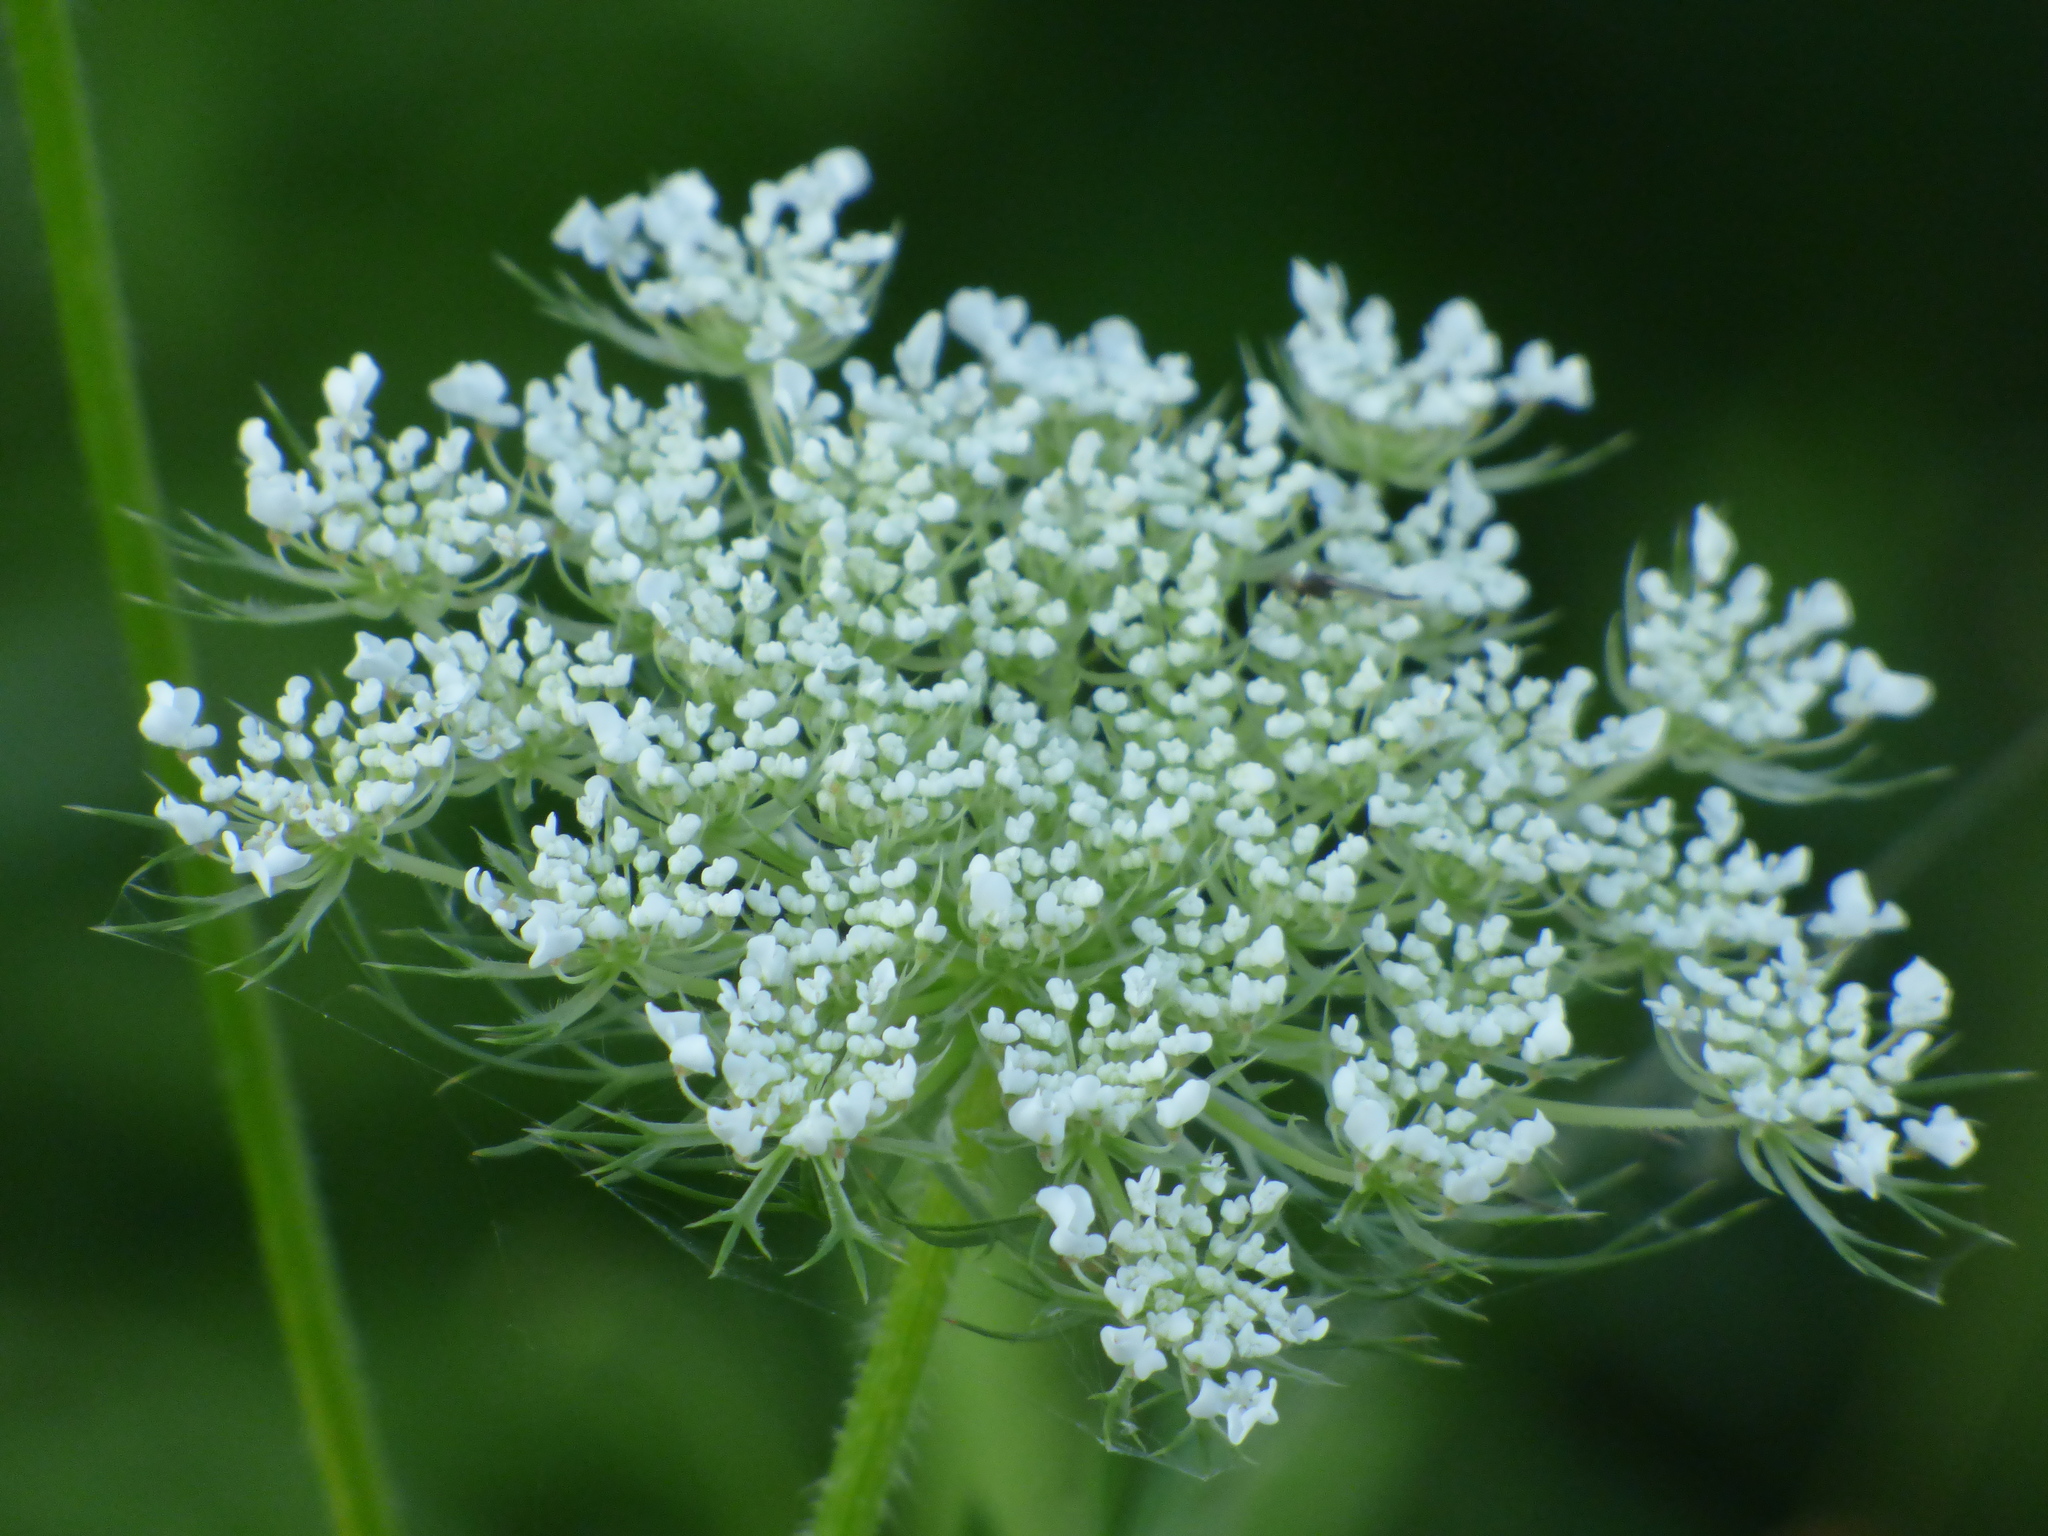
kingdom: Plantae
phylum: Tracheophyta
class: Magnoliopsida
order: Apiales
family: Apiaceae
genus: Daucus
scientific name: Daucus carota
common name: Wild carrot
